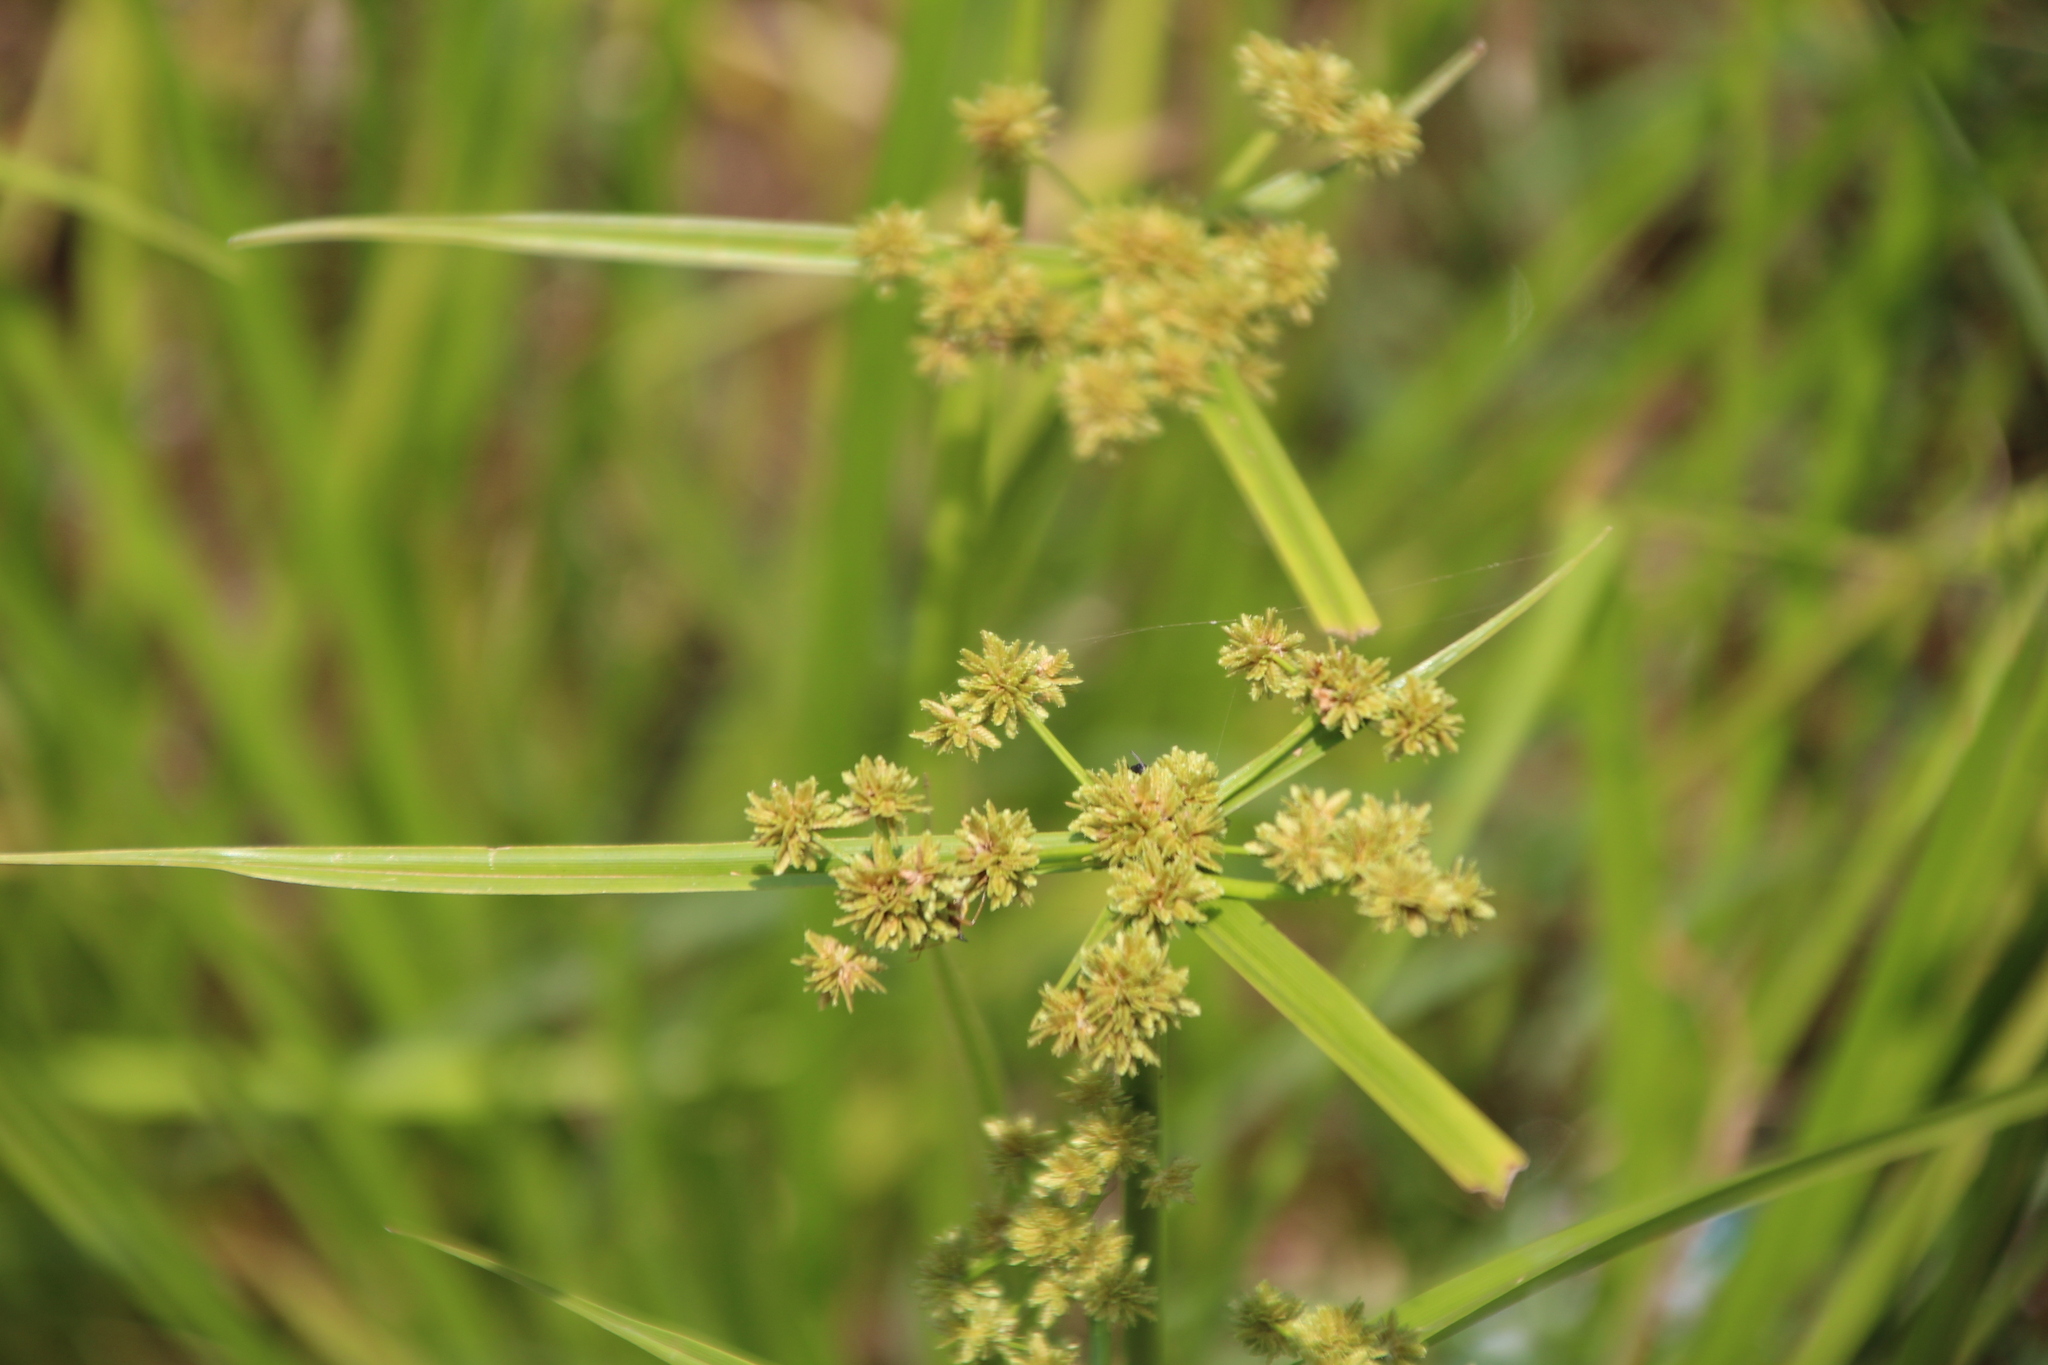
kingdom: Plantae
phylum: Tracheophyta
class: Liliopsida
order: Poales
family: Cyperaceae
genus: Cyperus
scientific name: Cyperus difformis
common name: Variable flatsedge
